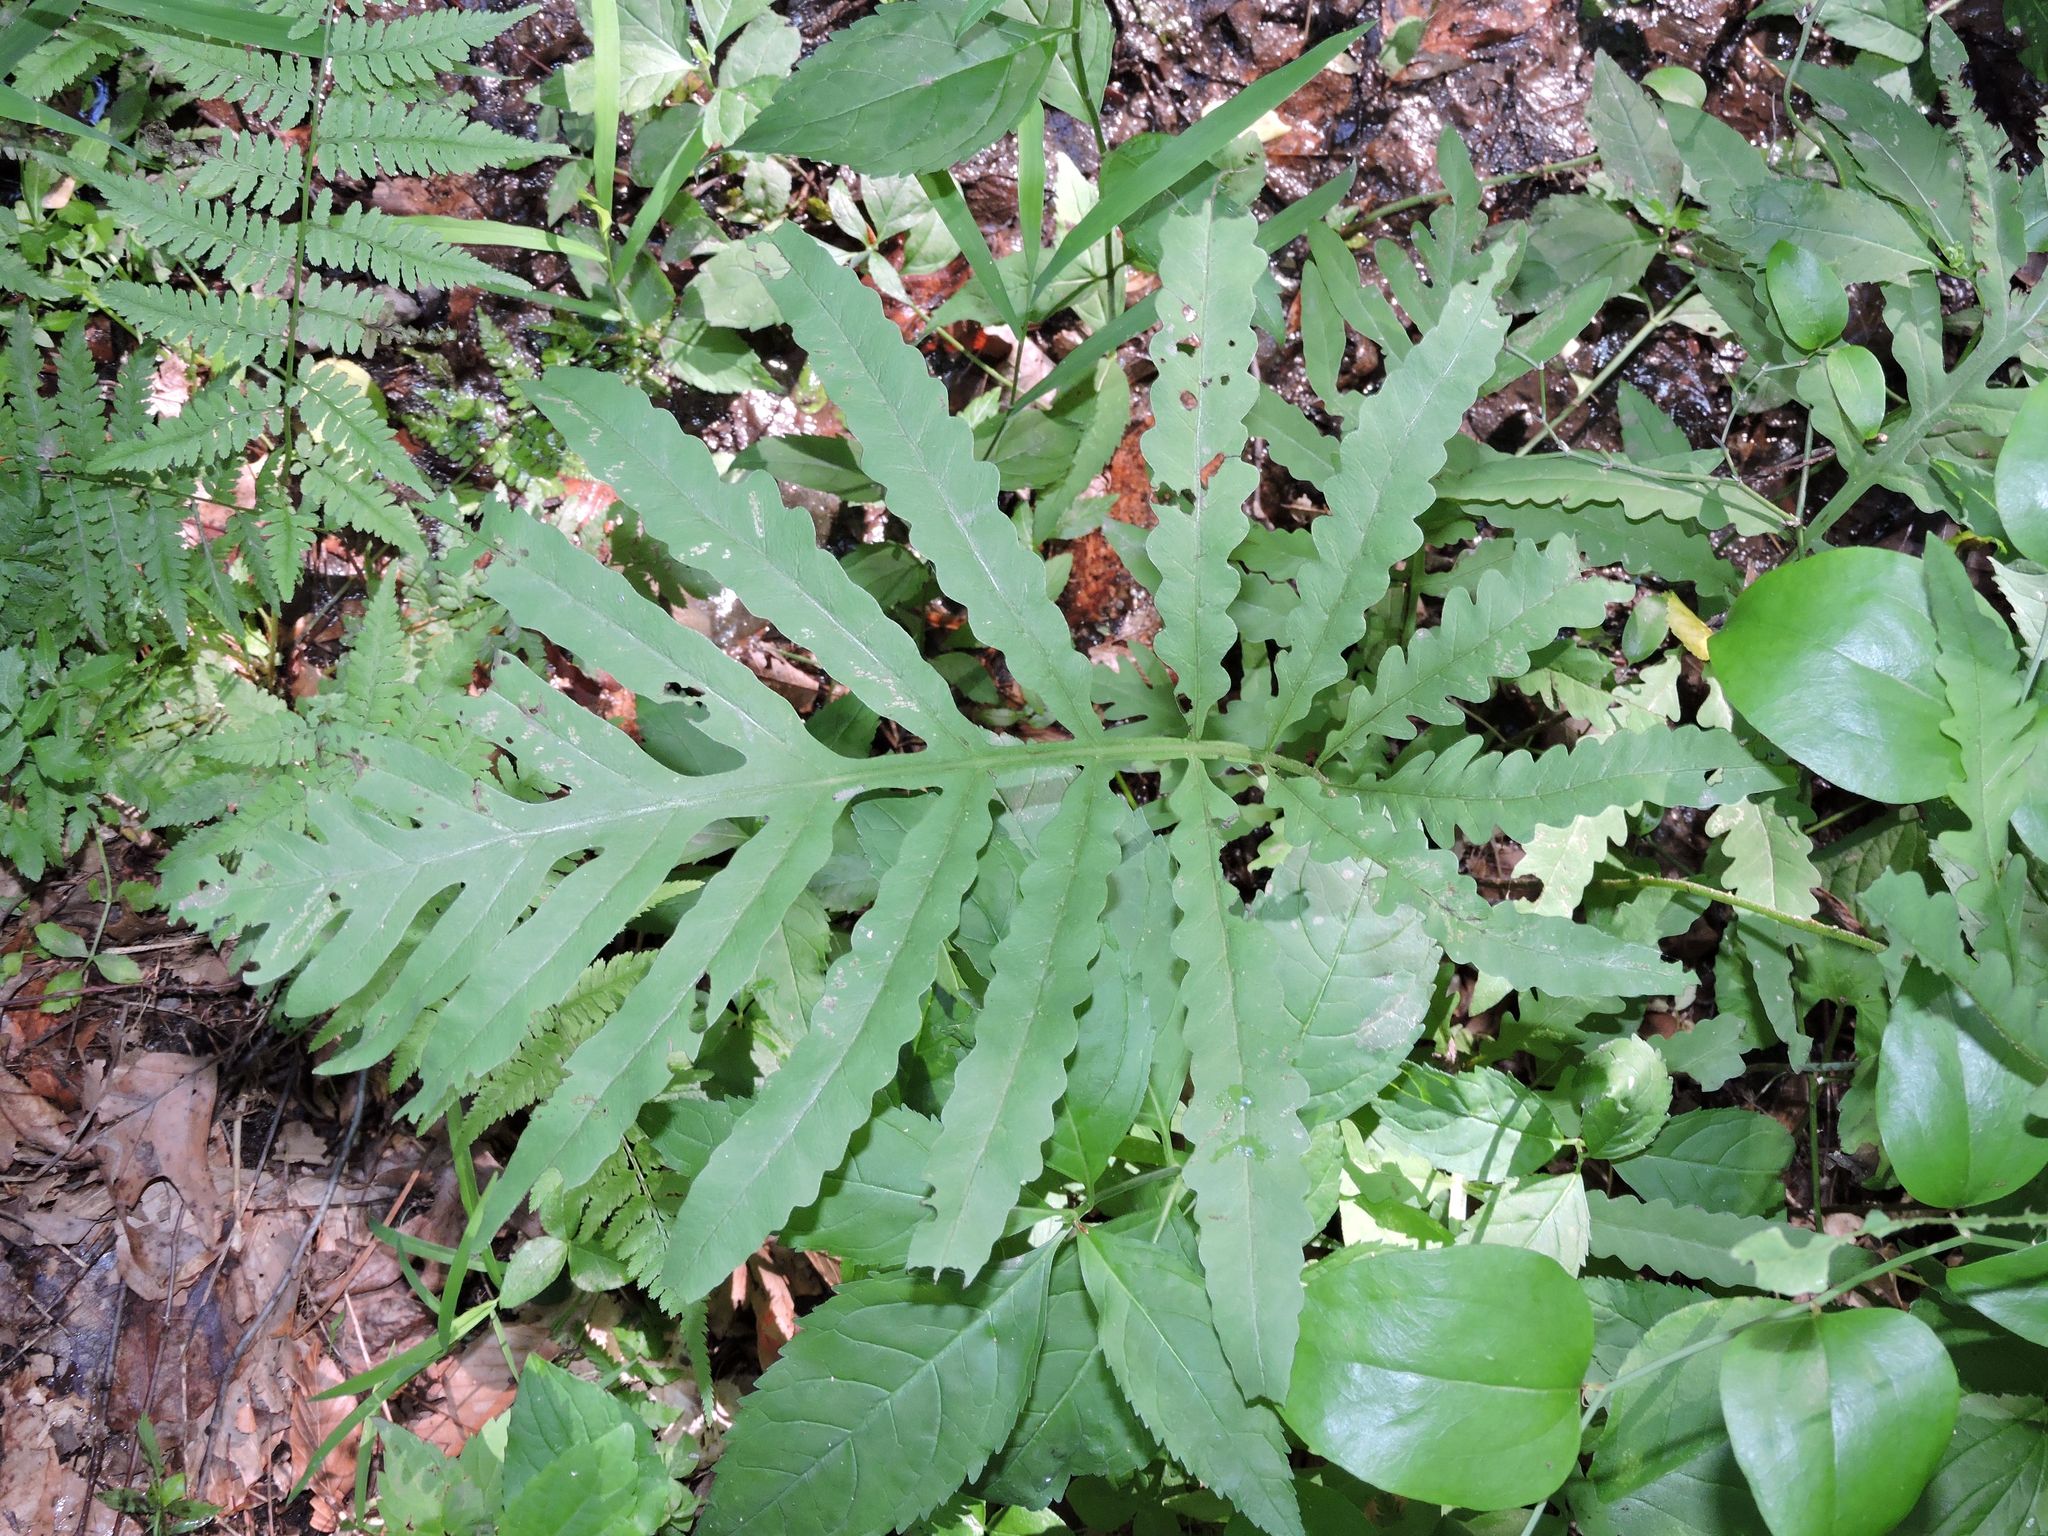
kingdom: Plantae
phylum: Tracheophyta
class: Polypodiopsida
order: Polypodiales
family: Onocleaceae
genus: Onoclea
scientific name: Onoclea sensibilis
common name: Sensitive fern
